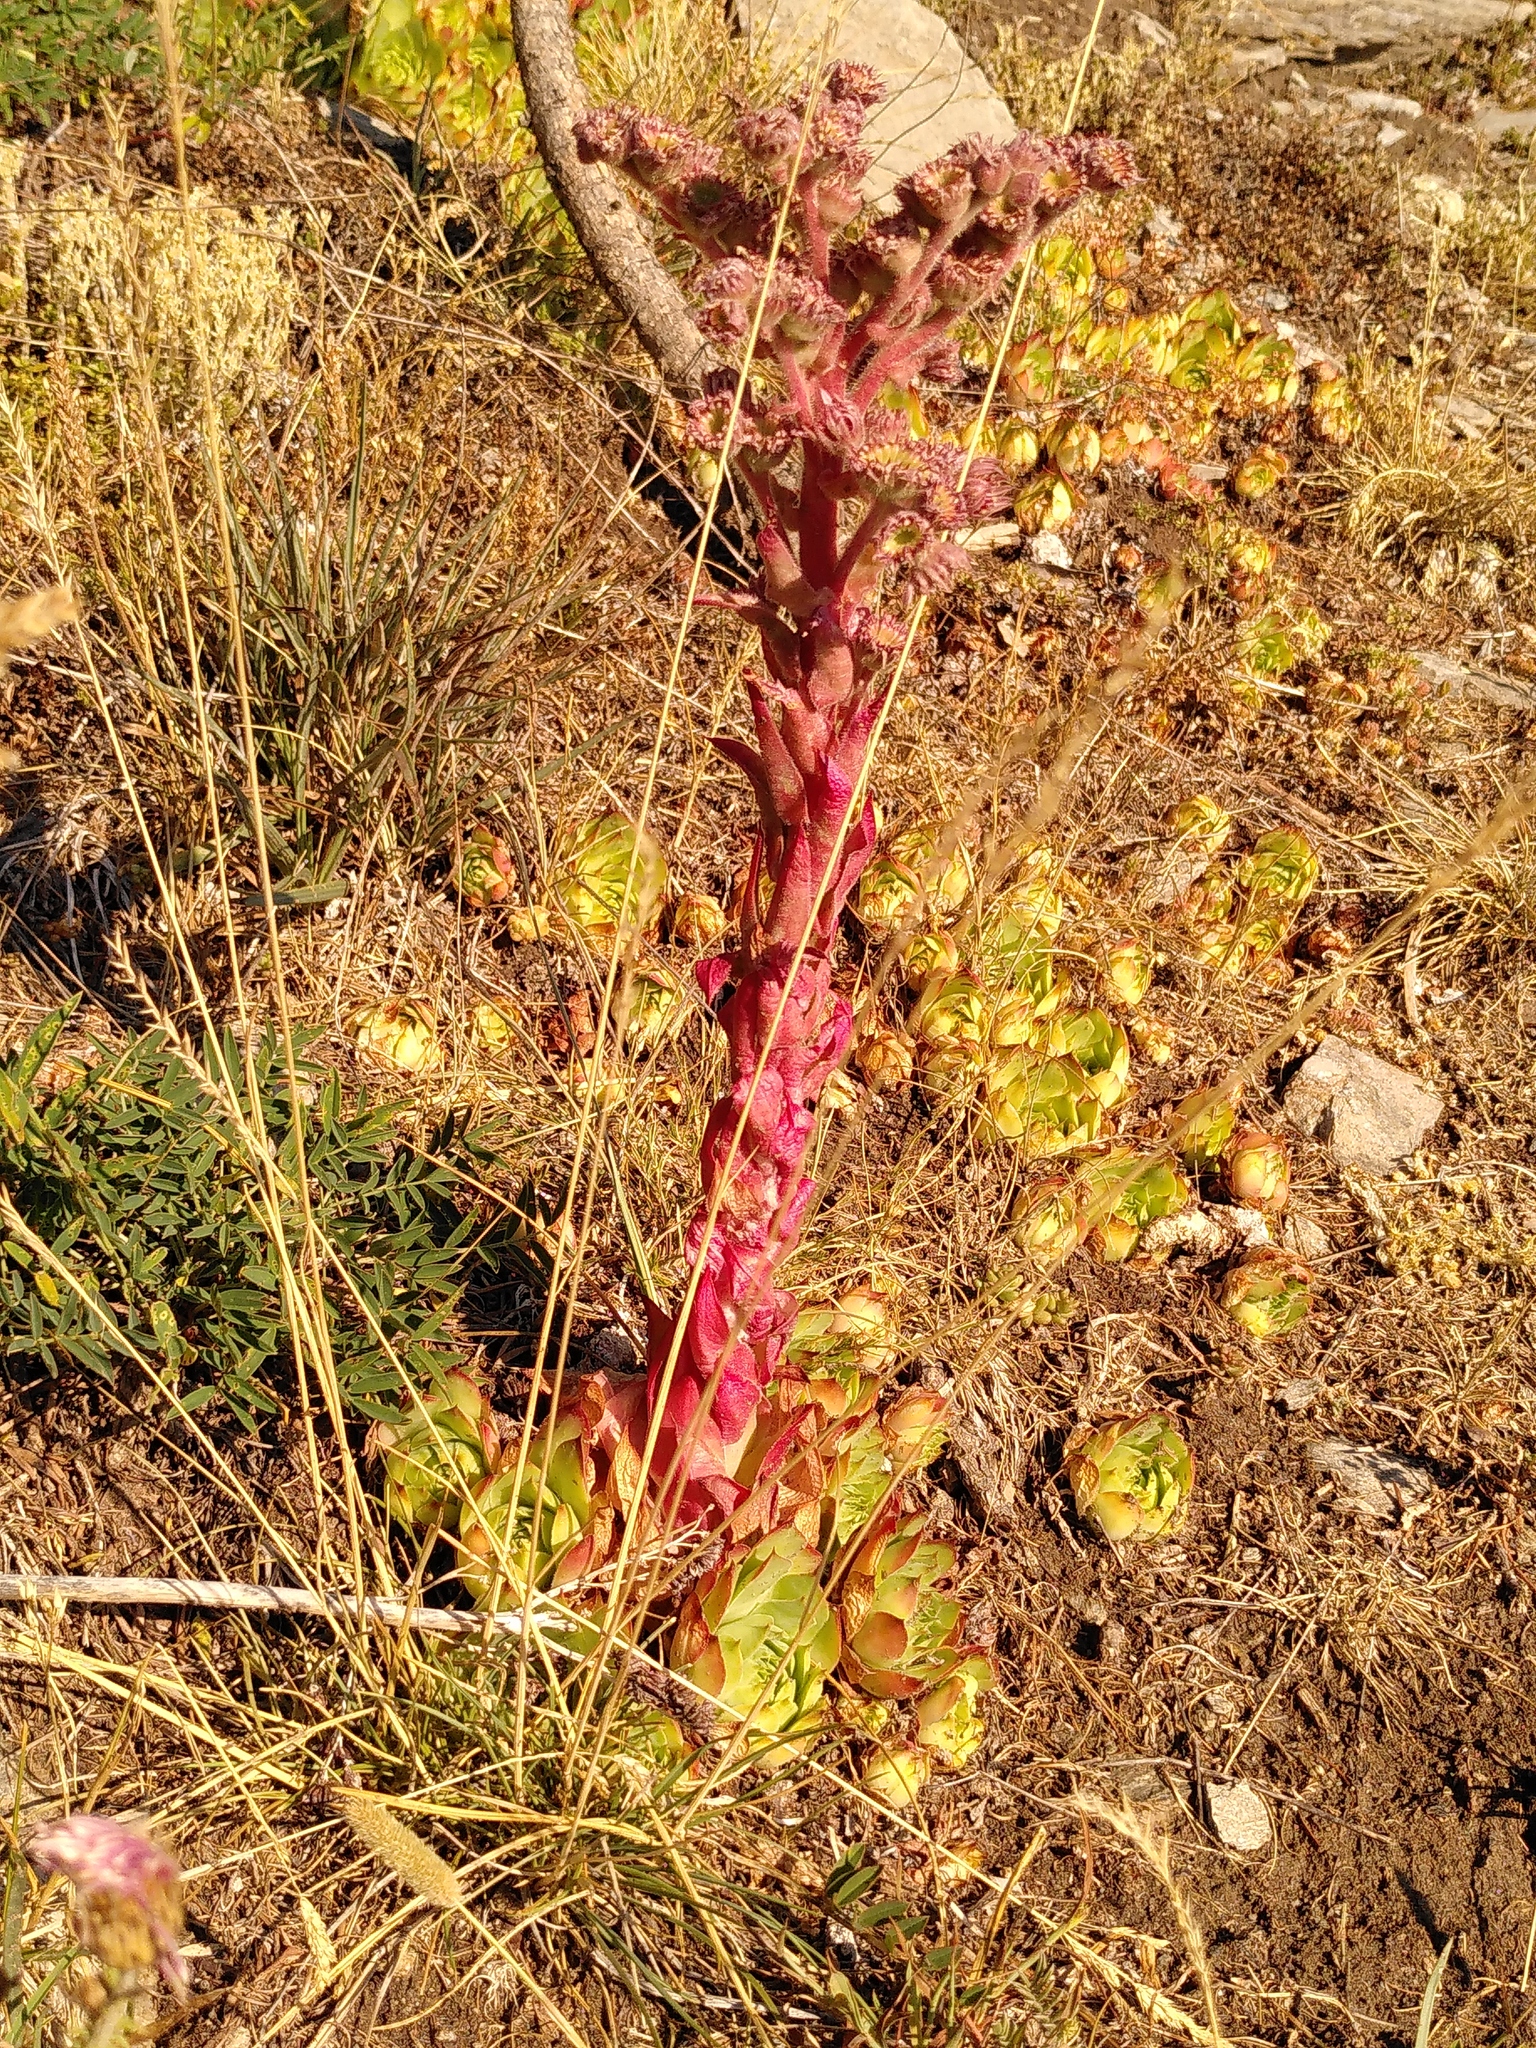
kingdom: Plantae
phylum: Tracheophyta
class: Magnoliopsida
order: Saxifragales
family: Crassulaceae
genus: Sempervivum
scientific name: Sempervivum tectorum
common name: House-leek
